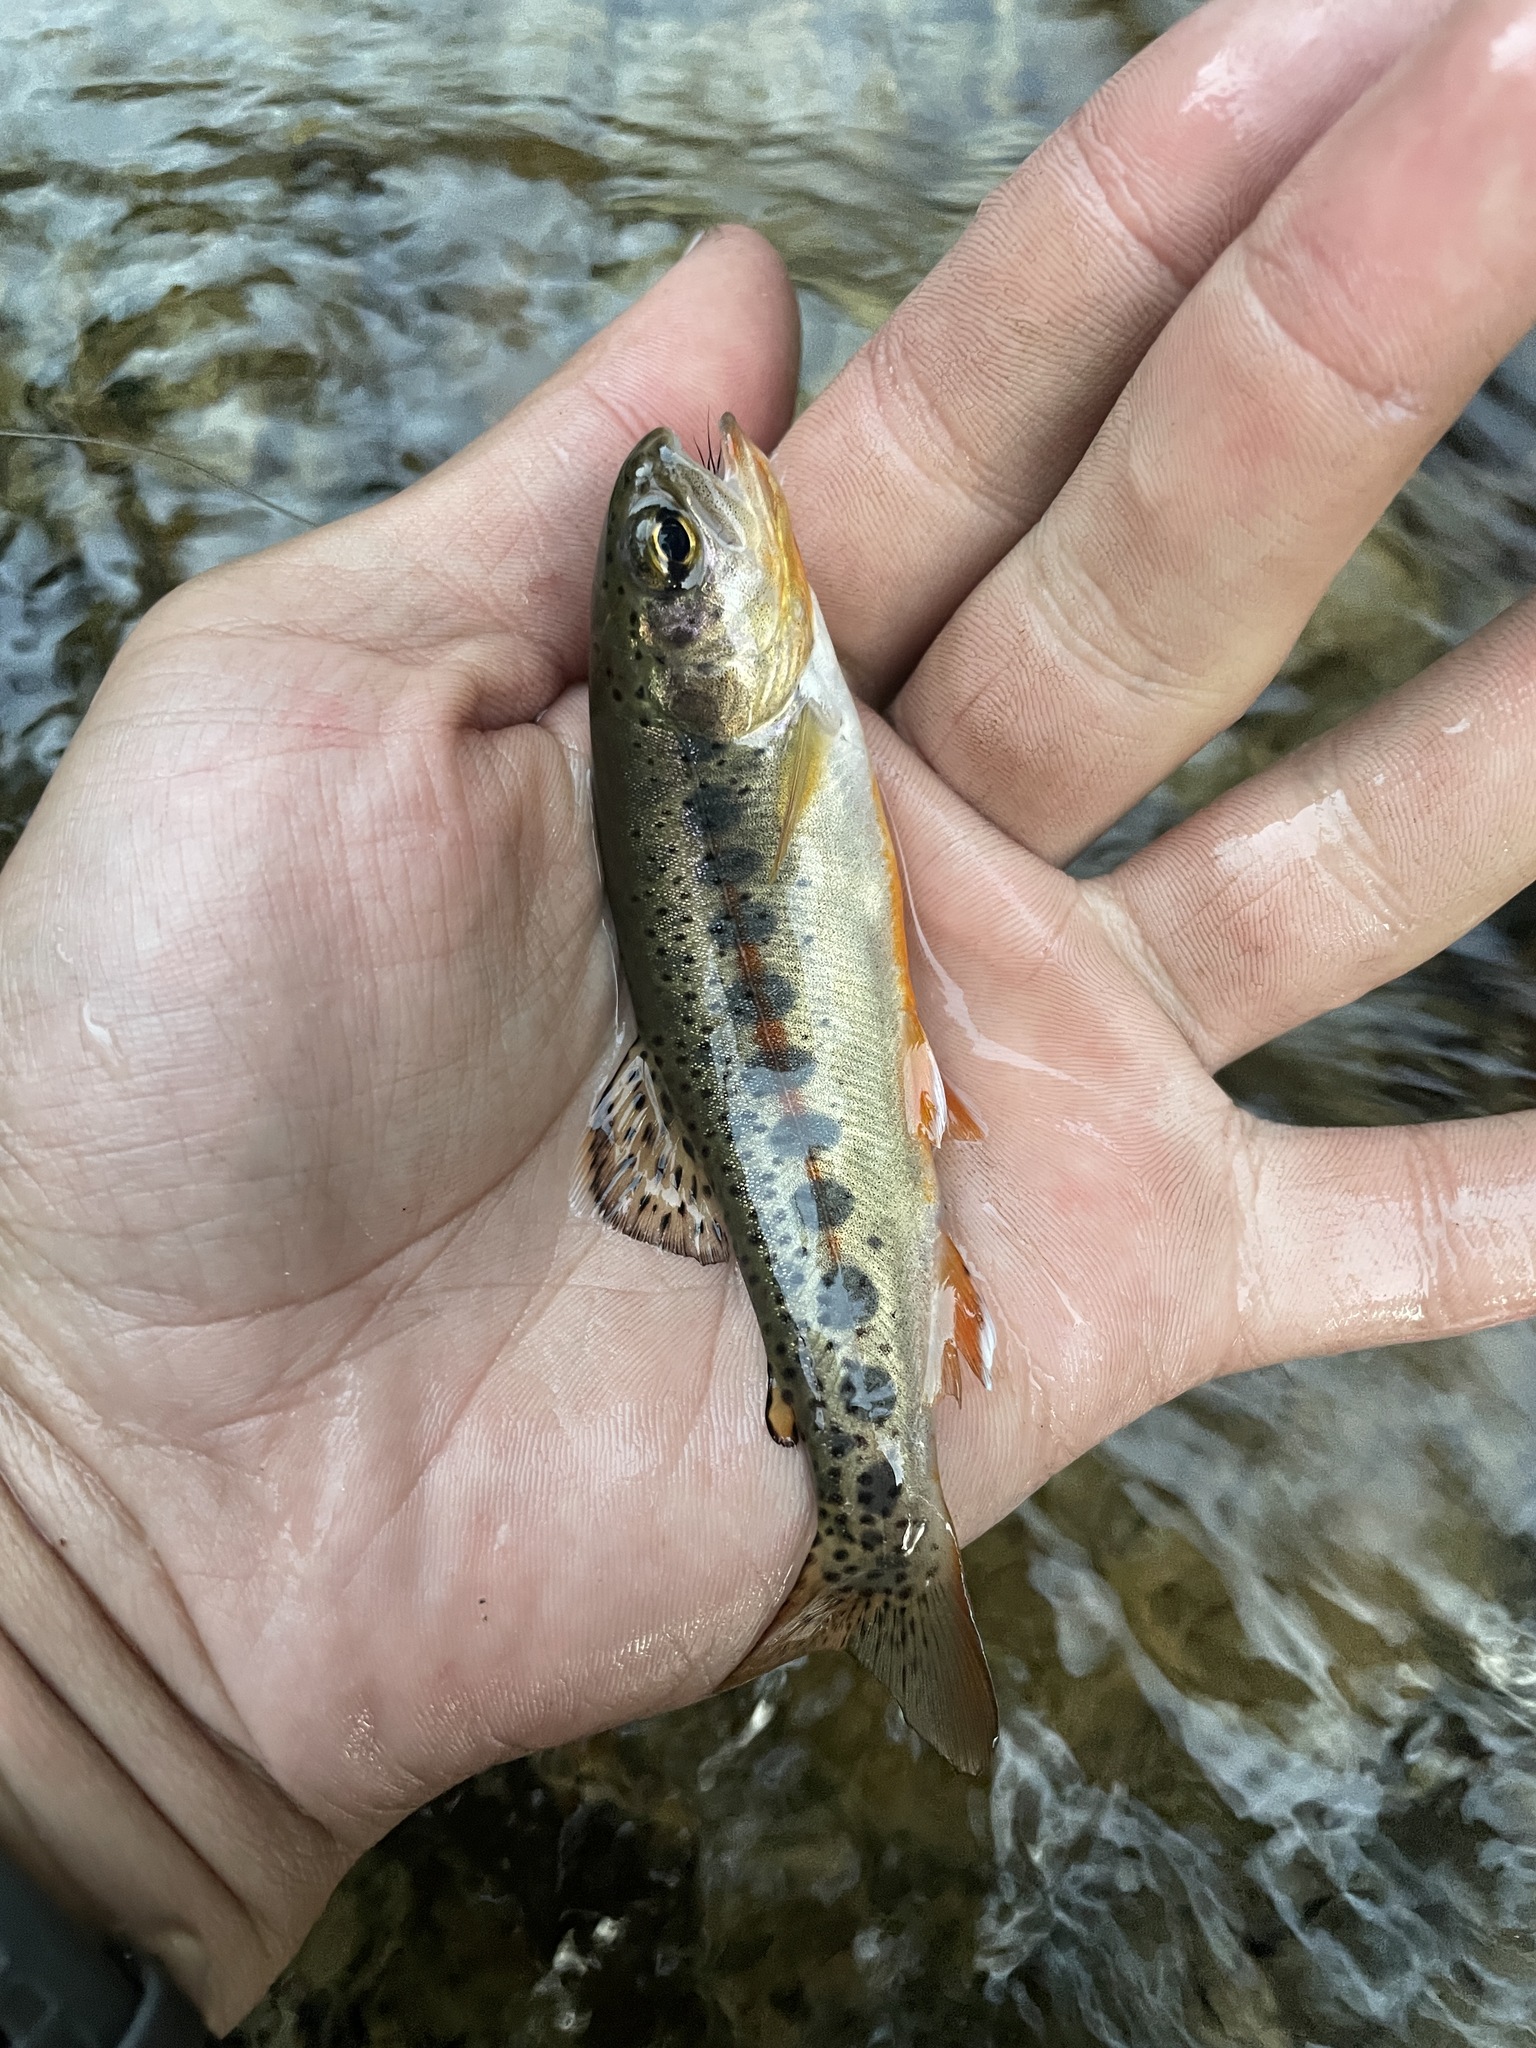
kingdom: Animalia
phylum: Chordata
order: Salmoniformes
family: Salmonidae
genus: Oncorhynchus
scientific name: Oncorhynchus mykiss
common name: Rainbow trout
